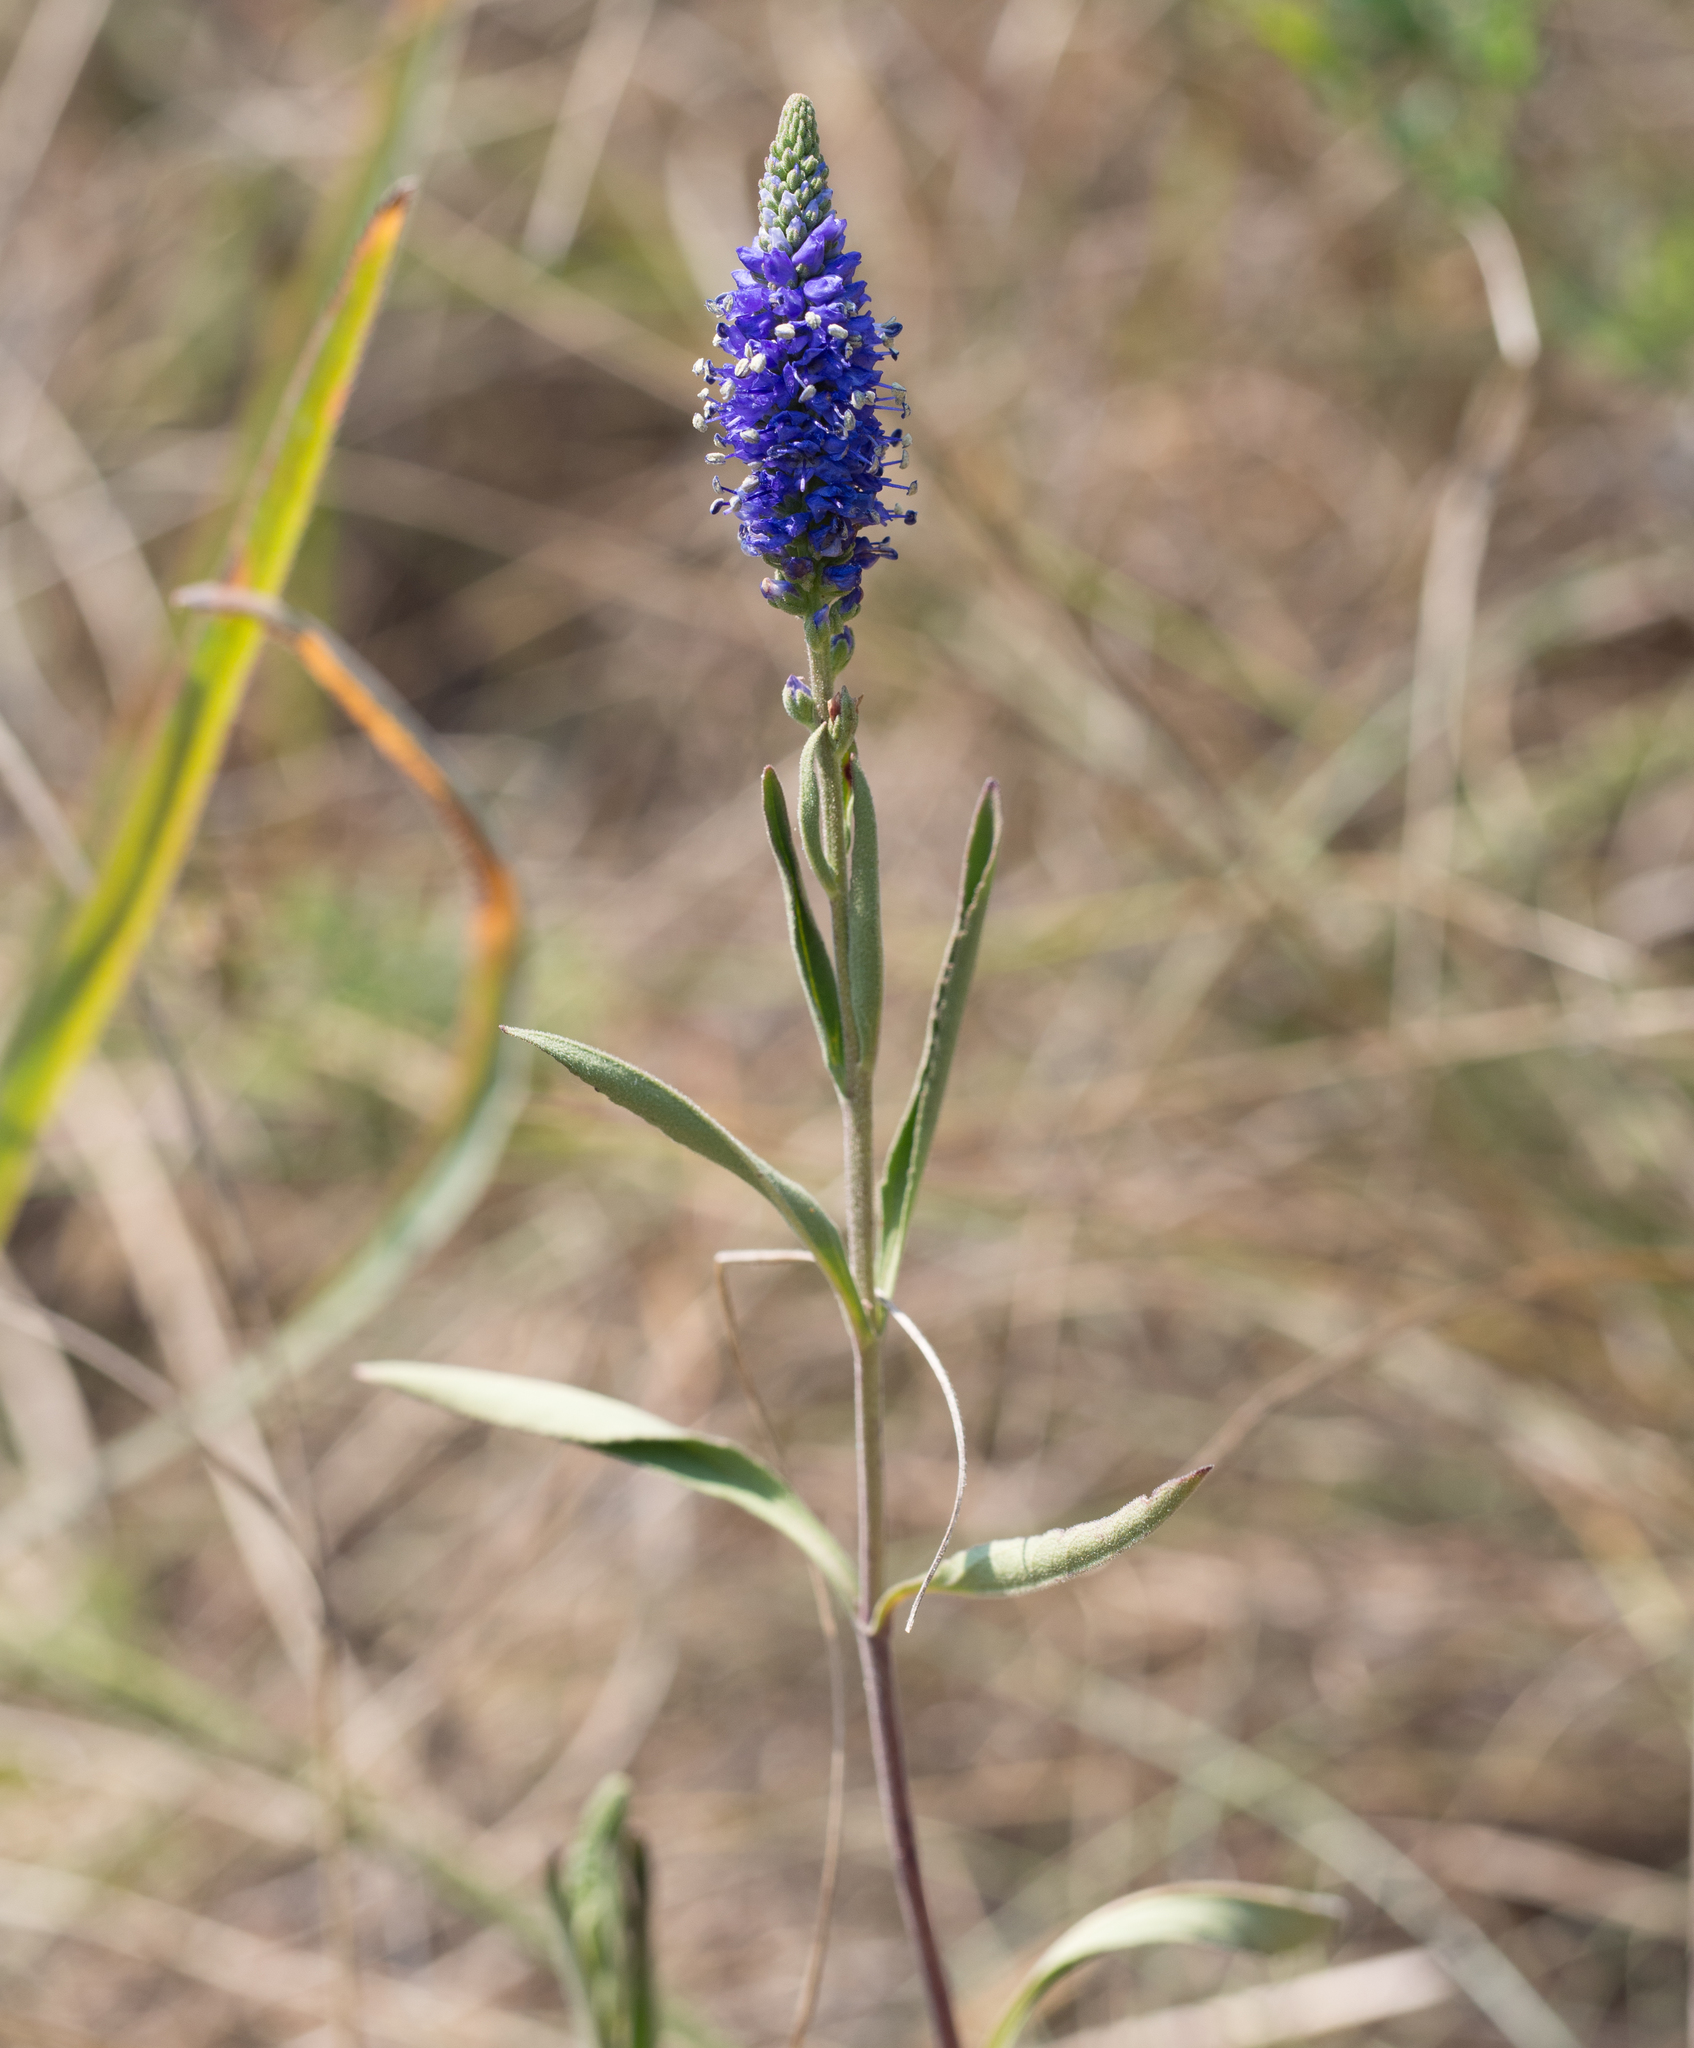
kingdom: Plantae
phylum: Tracheophyta
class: Magnoliopsida
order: Lamiales
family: Plantaginaceae
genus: Veronica
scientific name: Veronica spicata
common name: Spiked speedwell
